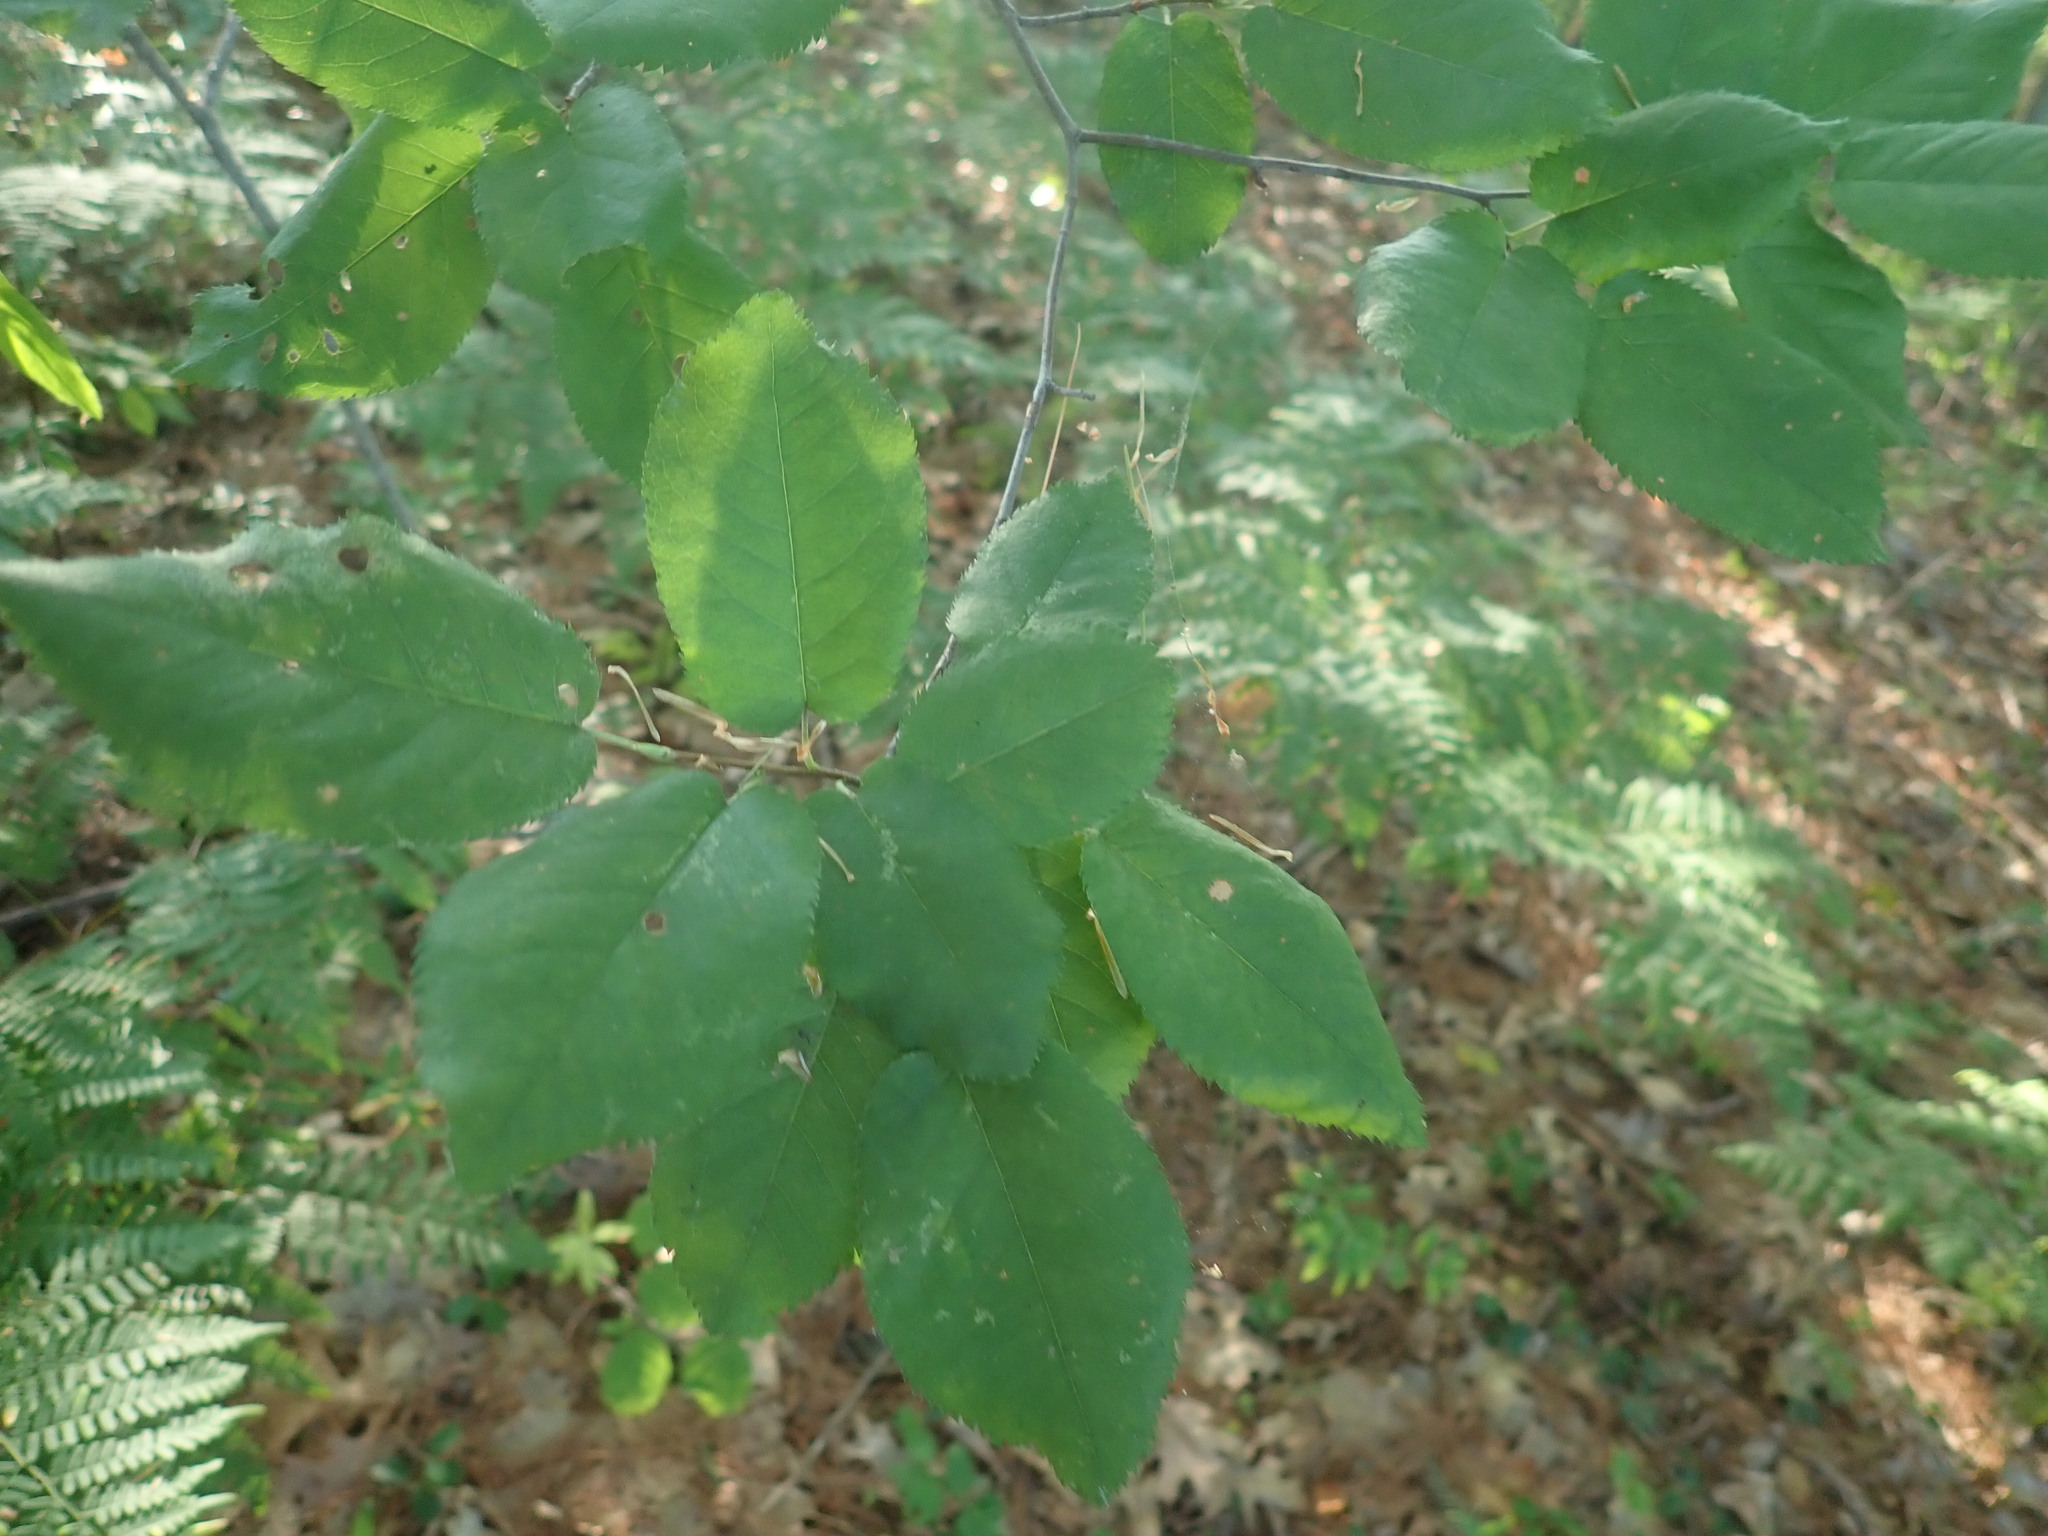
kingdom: Plantae
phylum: Tracheophyta
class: Magnoliopsida
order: Rosales
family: Rosaceae
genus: Amelanchier
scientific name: Amelanchier
